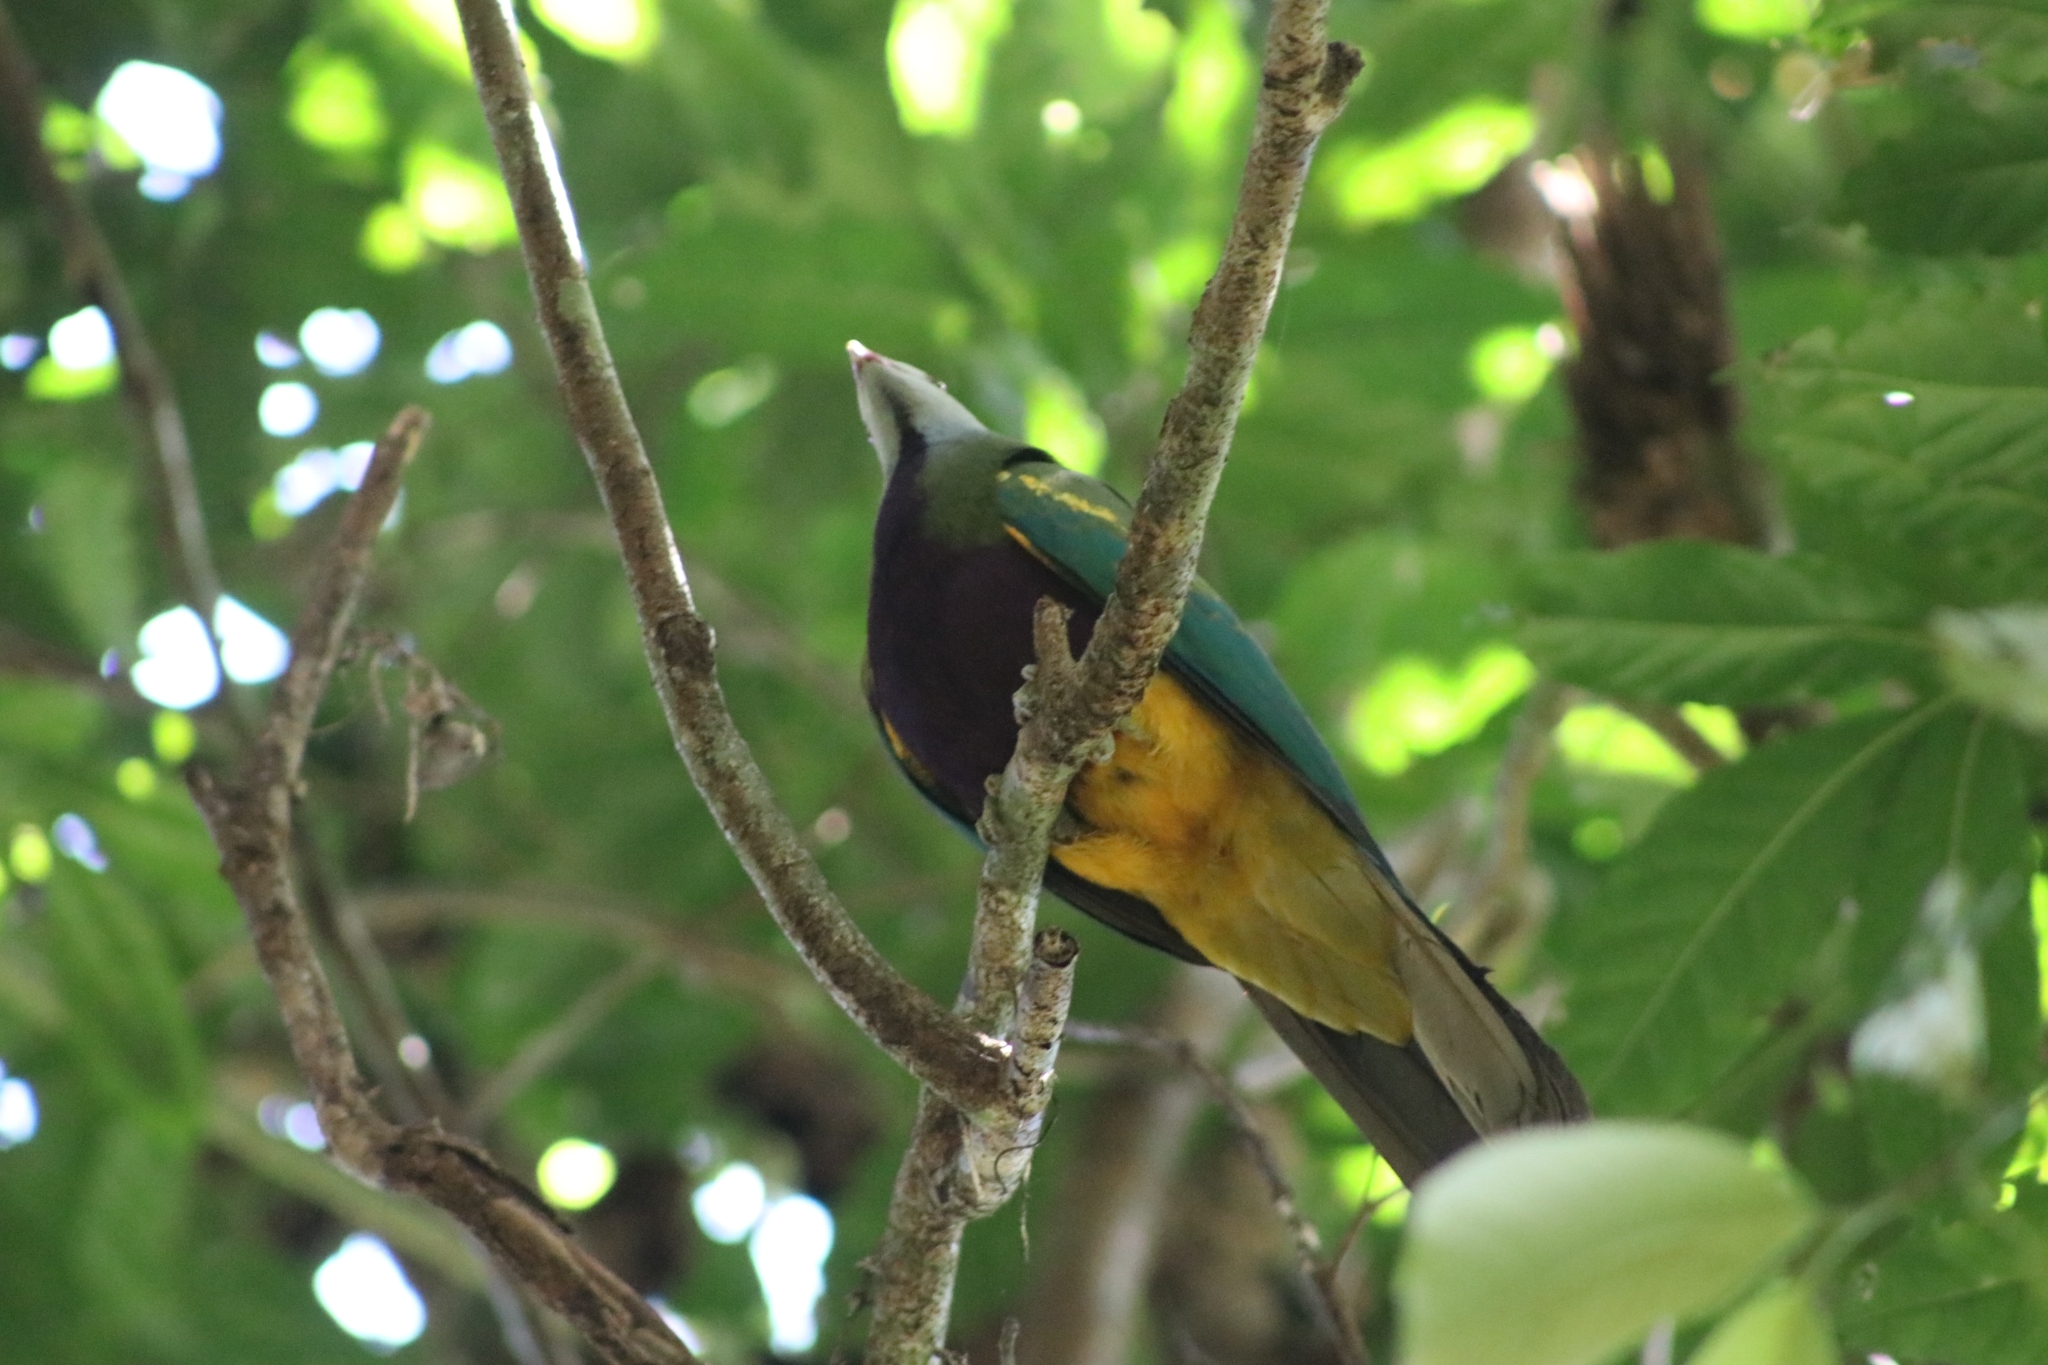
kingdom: Animalia
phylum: Chordata
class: Aves
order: Columbiformes
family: Columbidae
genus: Ptilinopus
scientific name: Ptilinopus magnificus
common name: Wompoo fruit dove
